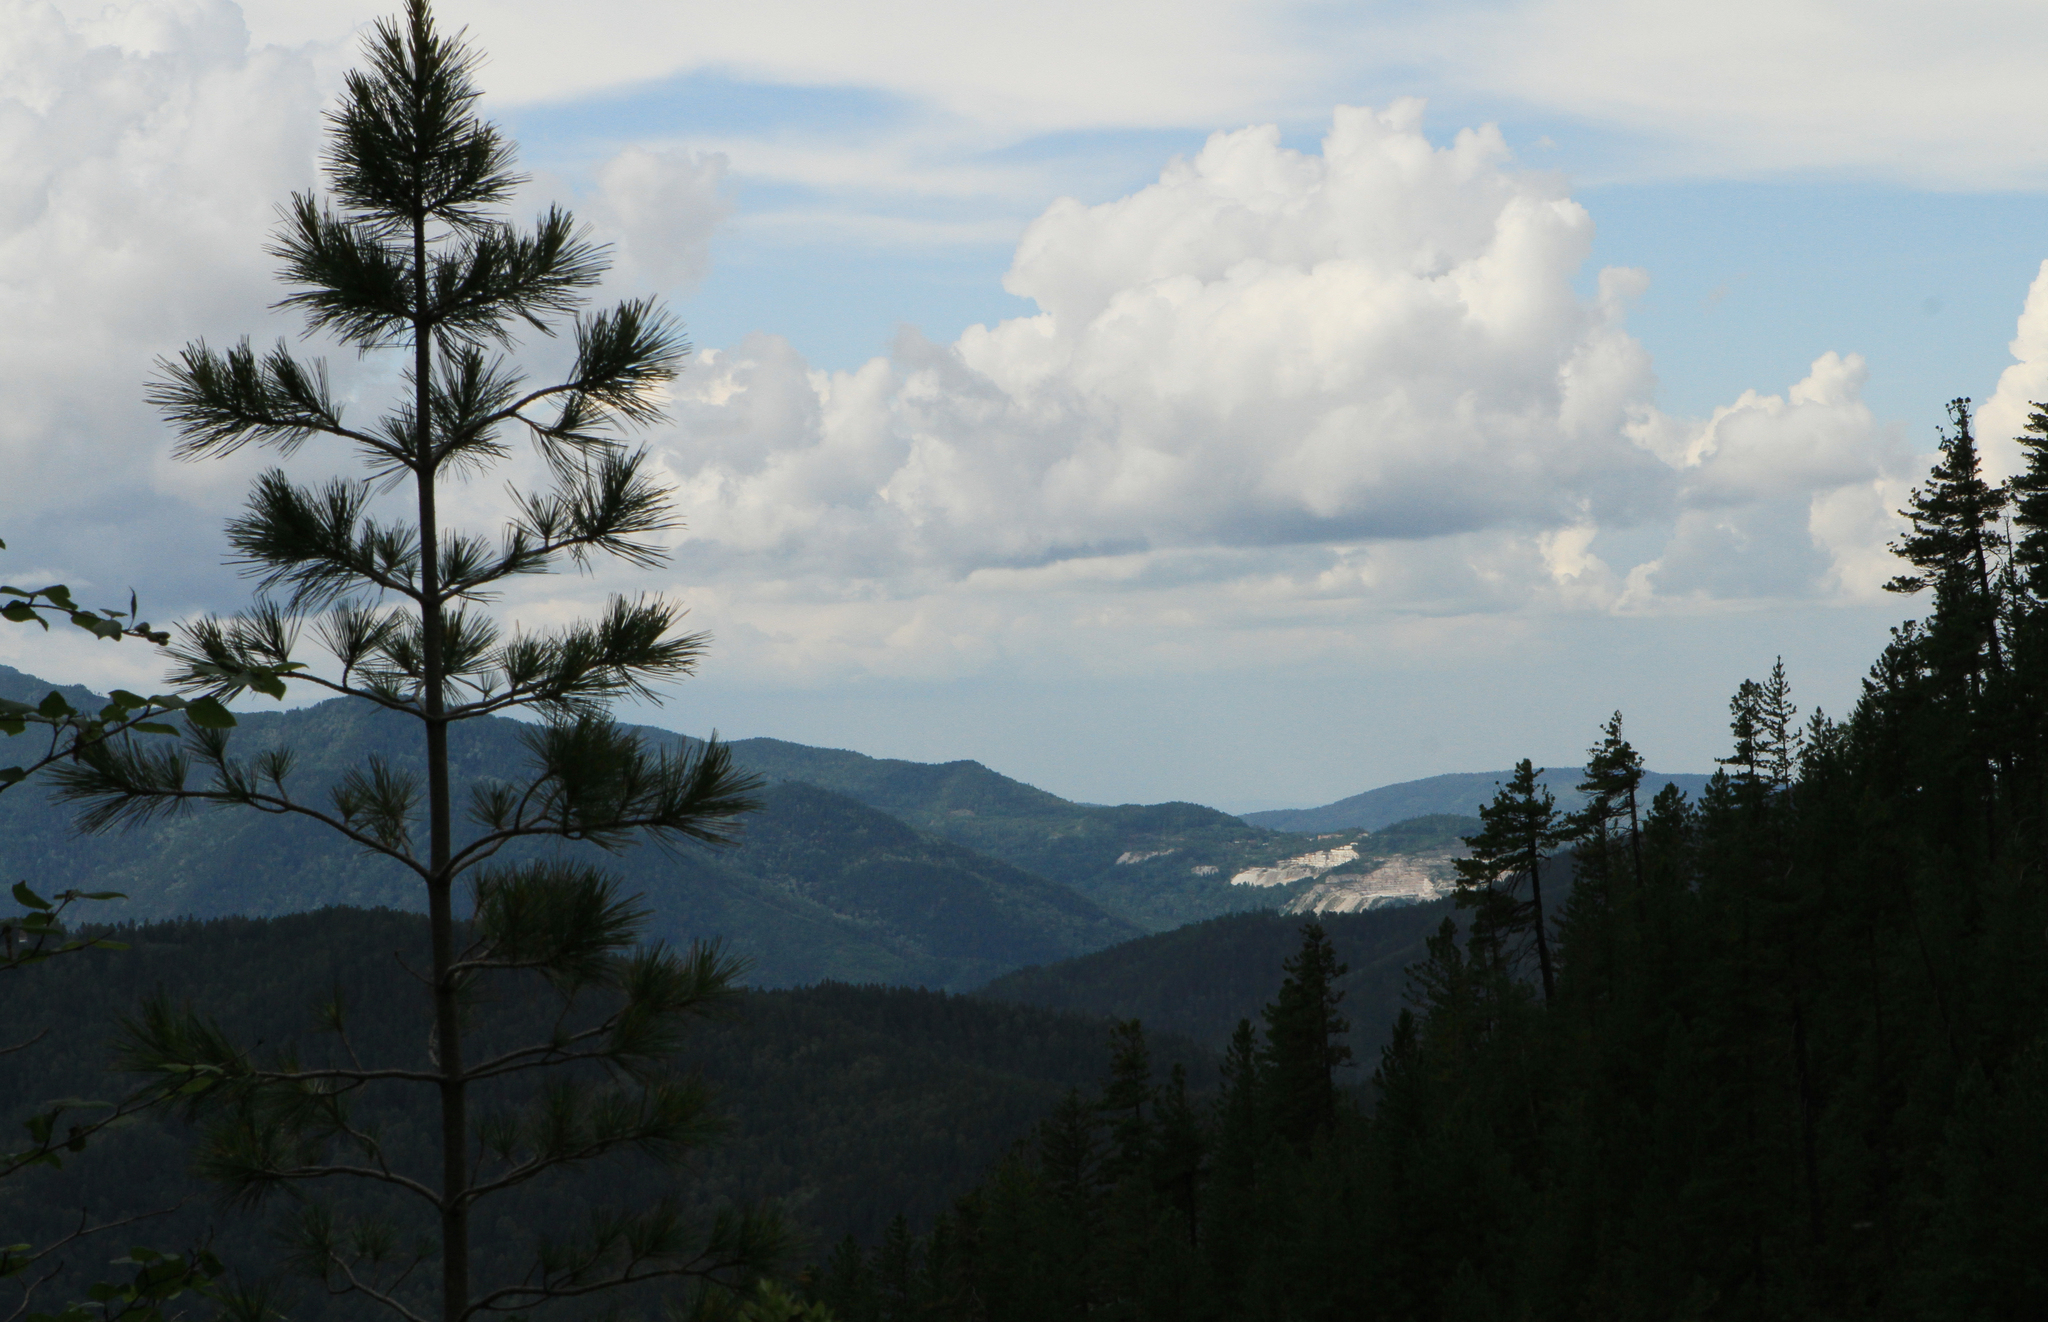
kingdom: Plantae
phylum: Tracheophyta
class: Pinopsida
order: Pinales
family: Pinaceae
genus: Pinus
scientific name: Pinus sibirica
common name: Siberian pine
